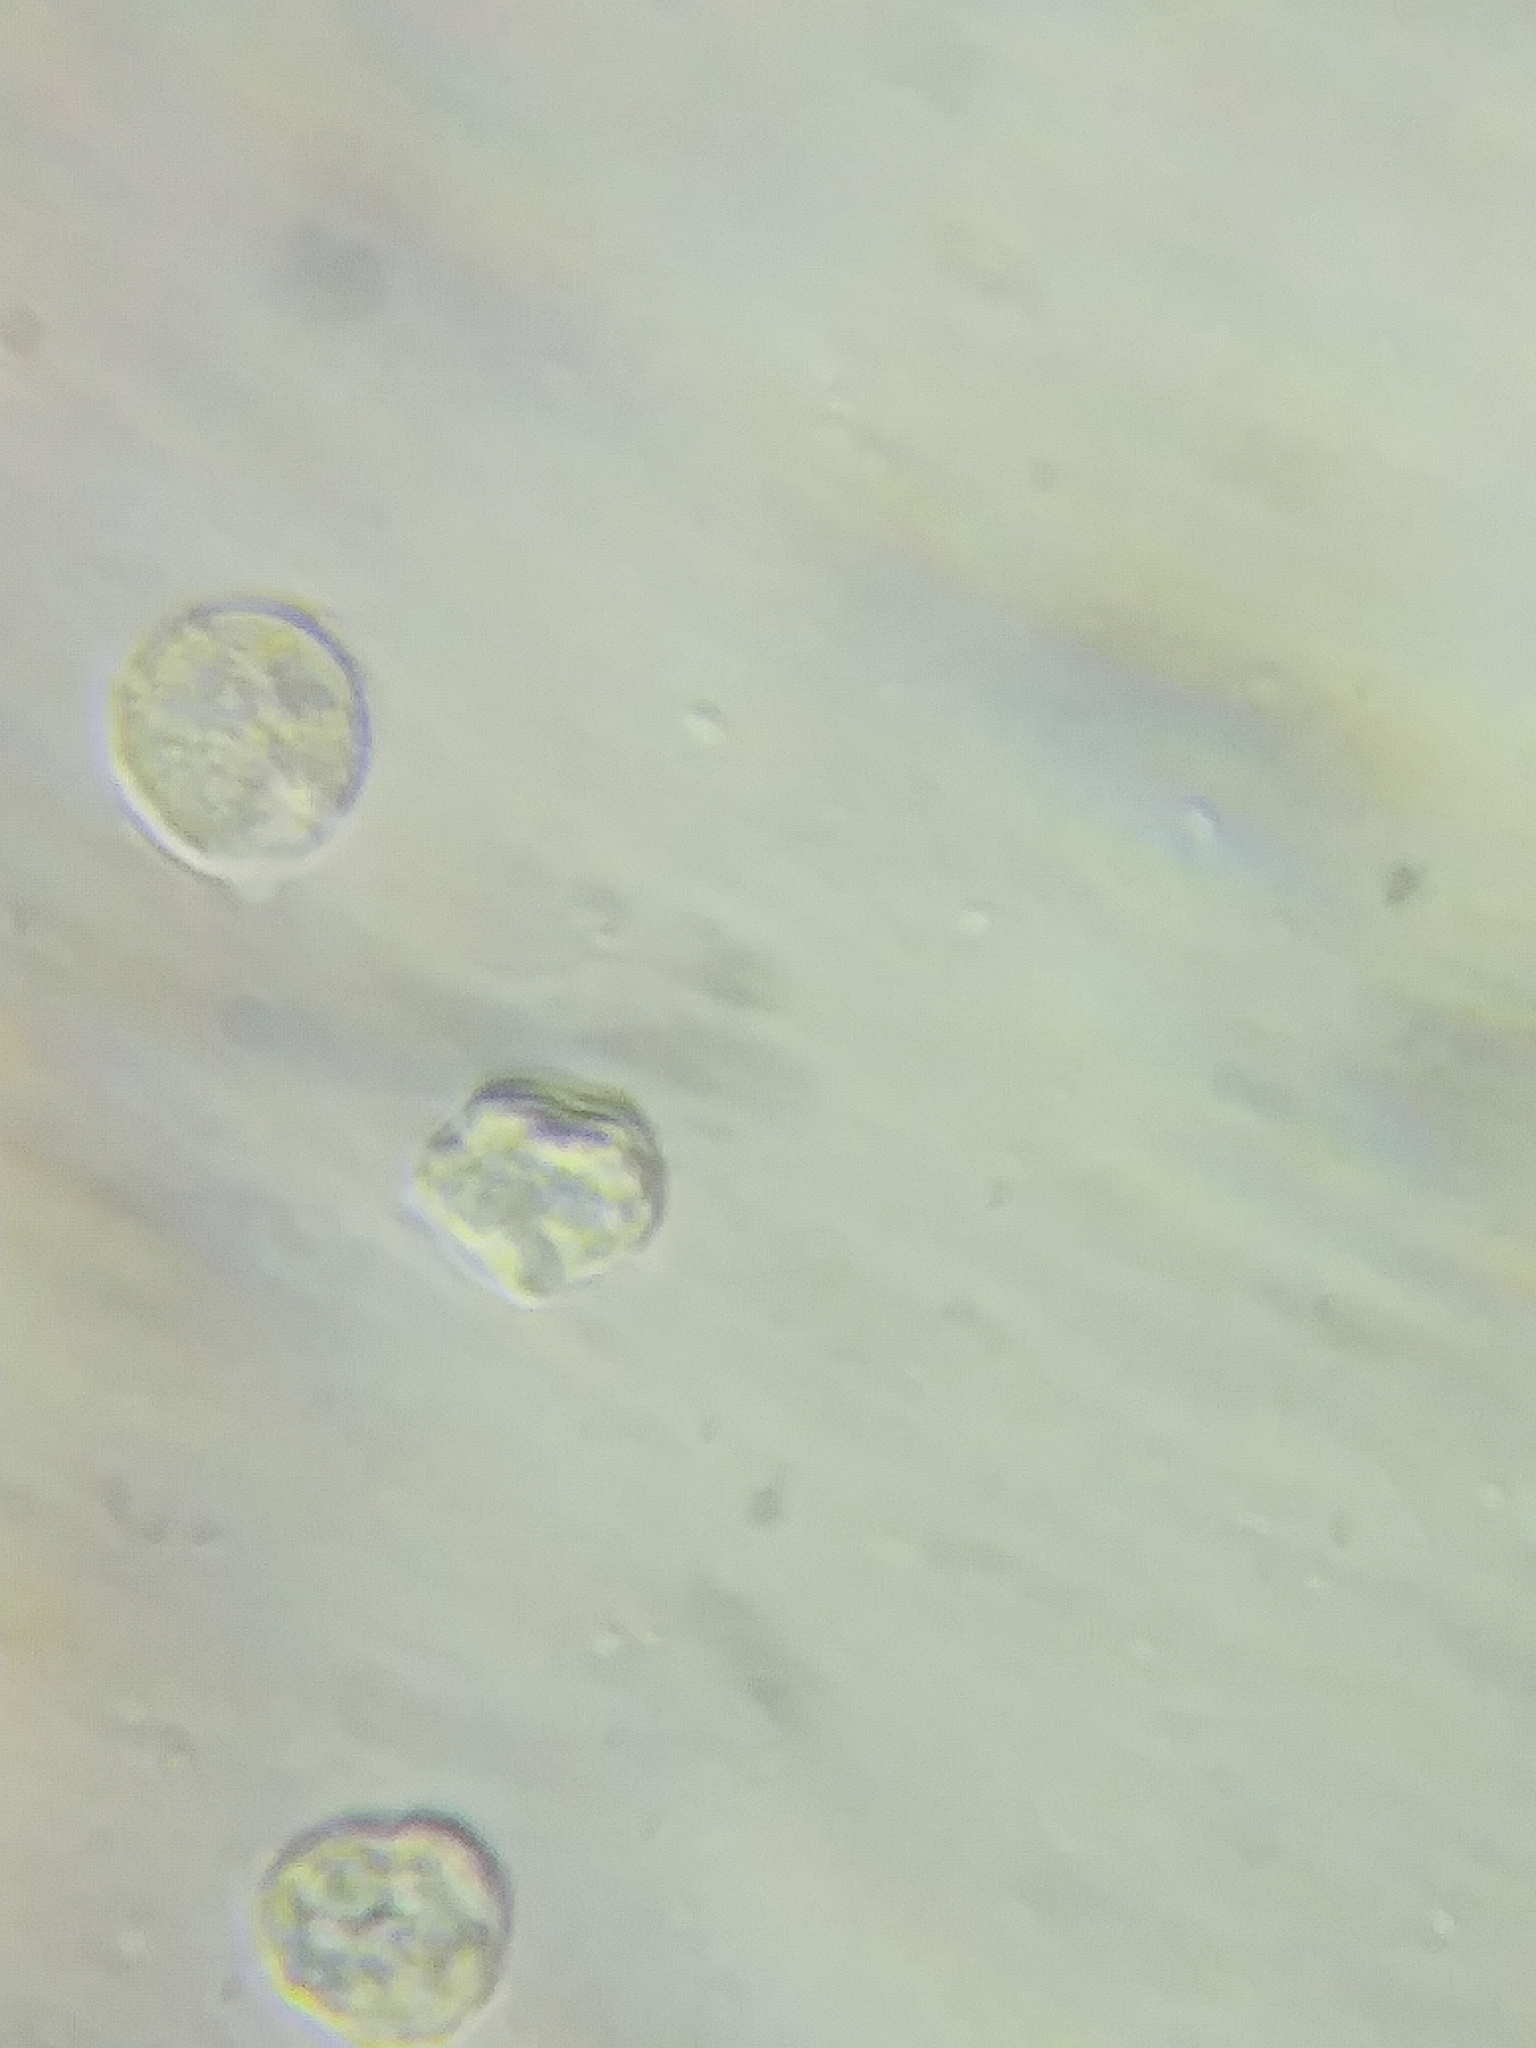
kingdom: Fungi
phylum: Basidiomycota
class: Agaricomycetes
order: Agaricales
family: Amanitaceae
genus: Amanita
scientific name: Amanita bisporigera
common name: Eastern north american destroying angel
